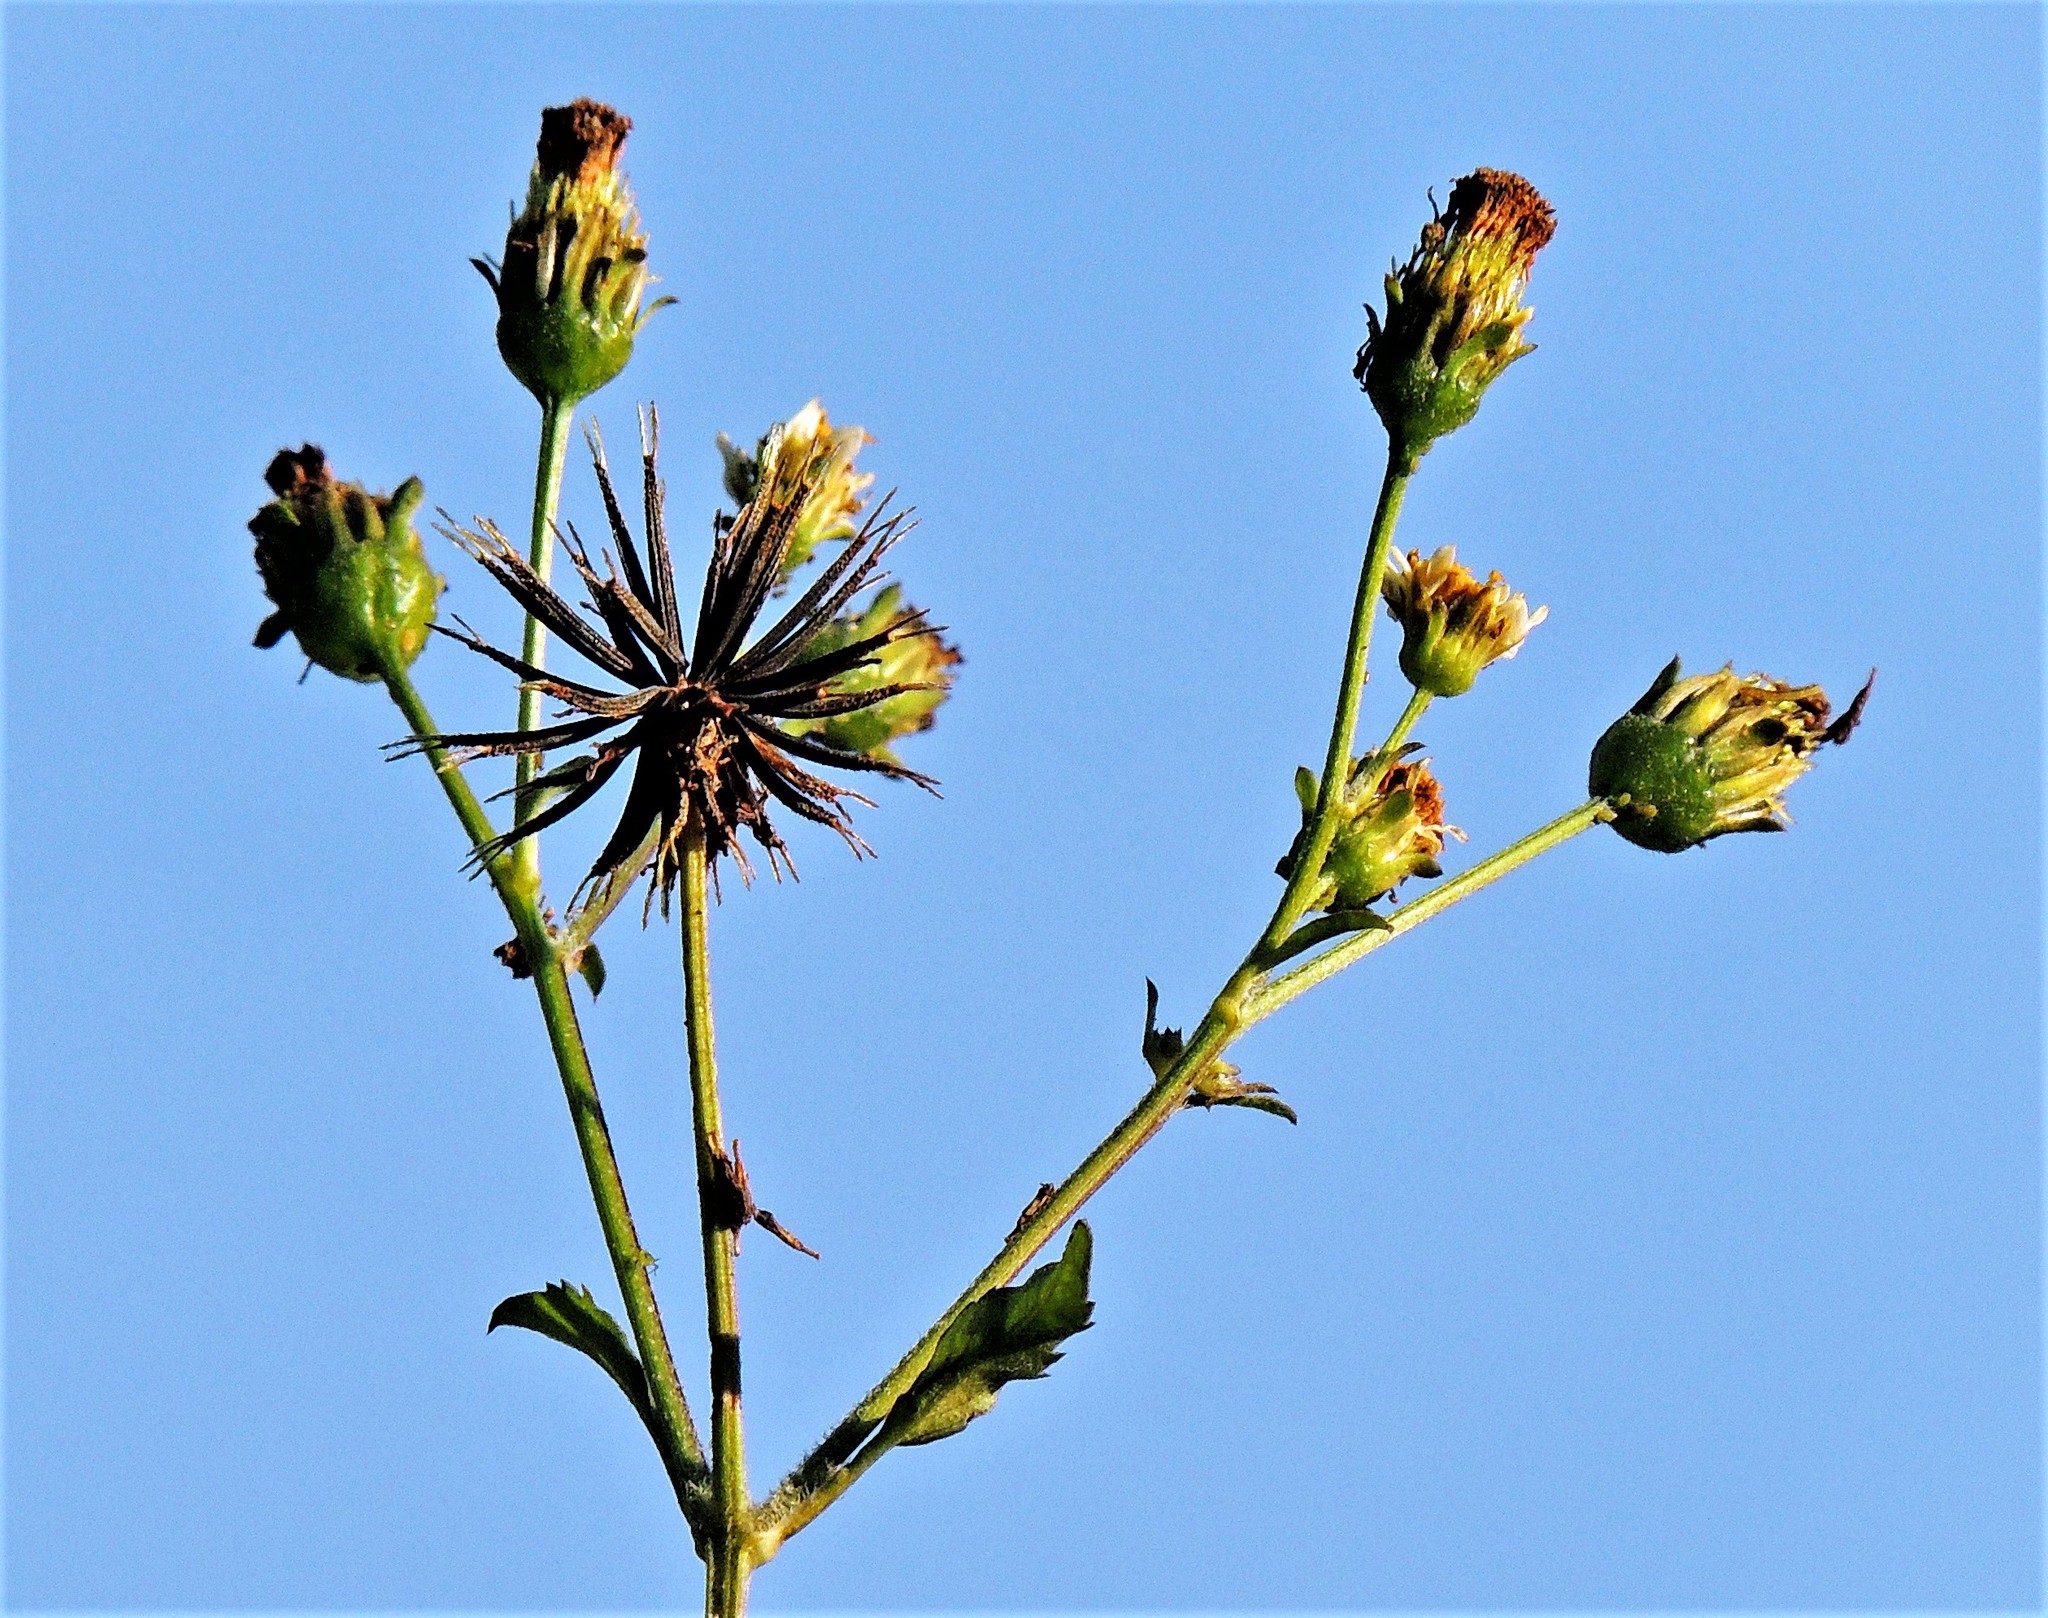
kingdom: Plantae
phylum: Tracheophyta
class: Magnoliopsida
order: Asterales
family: Asteraceae
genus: Bidens
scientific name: Bidens pilosa
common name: Black-jack
